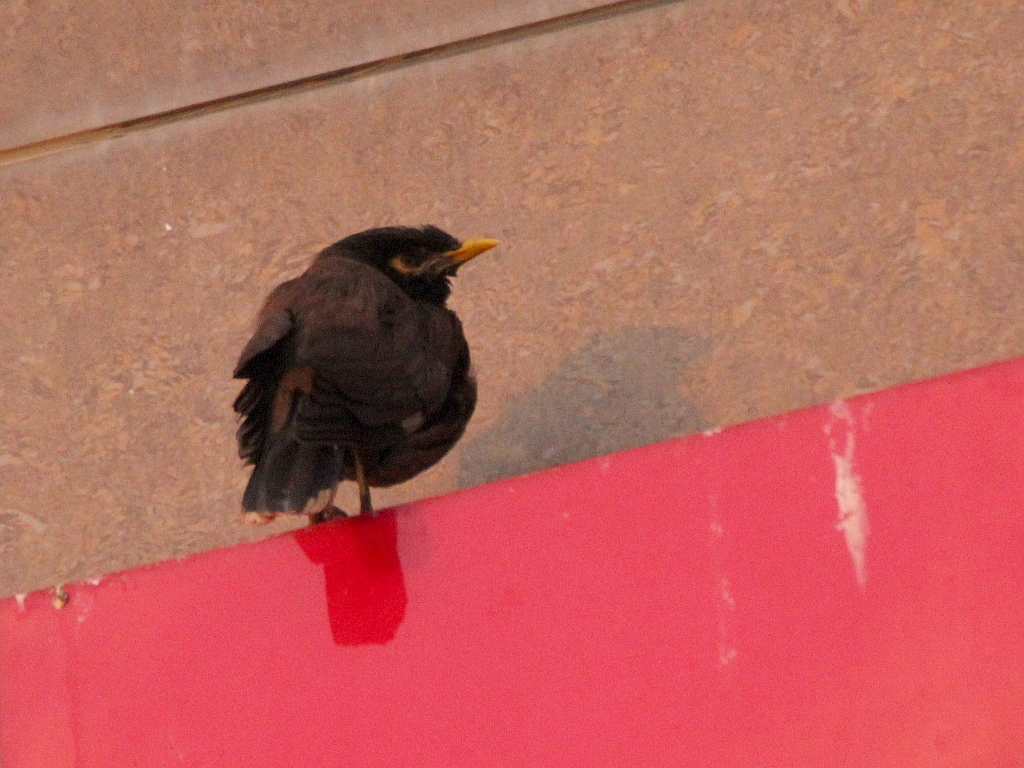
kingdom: Animalia
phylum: Chordata
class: Aves
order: Passeriformes
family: Sturnidae
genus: Acridotheres
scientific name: Acridotheres tristis
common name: Common myna
